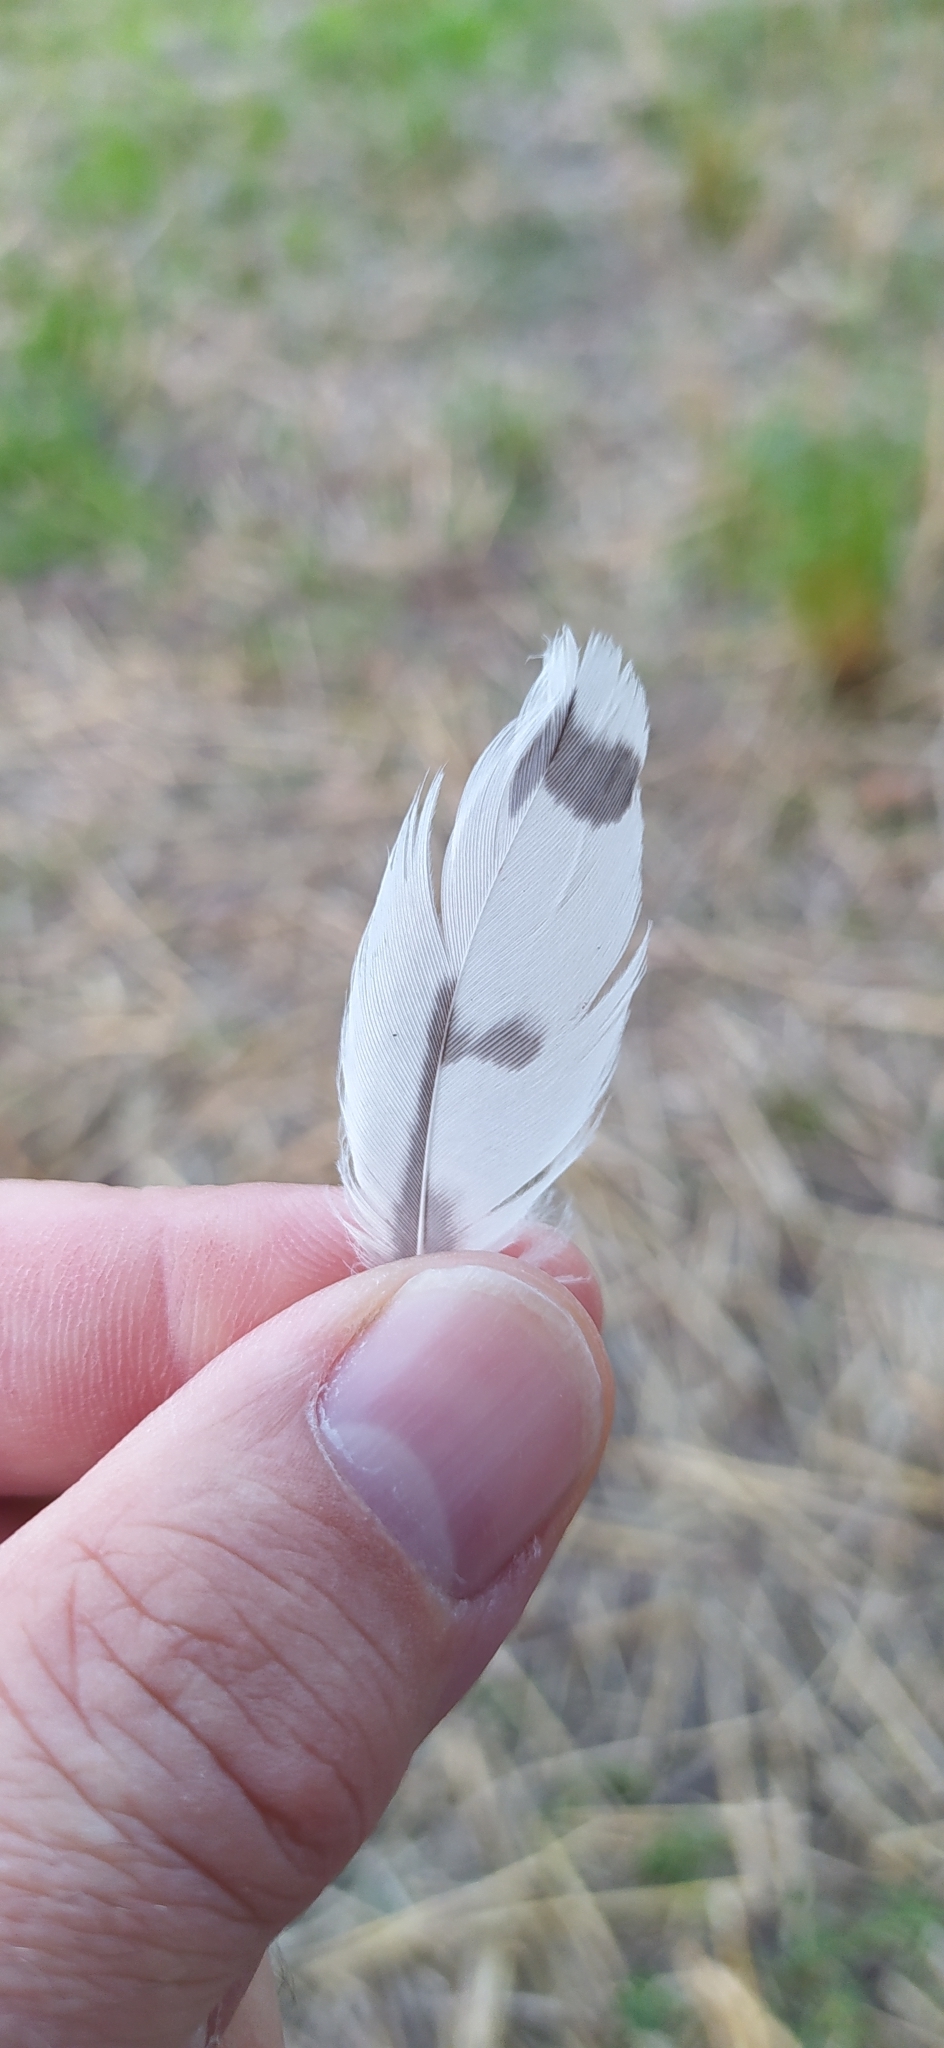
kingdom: Animalia
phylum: Chordata
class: Aves
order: Falconiformes
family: Falconidae
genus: Falco
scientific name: Falco tinnunculus
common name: Common kestrel
